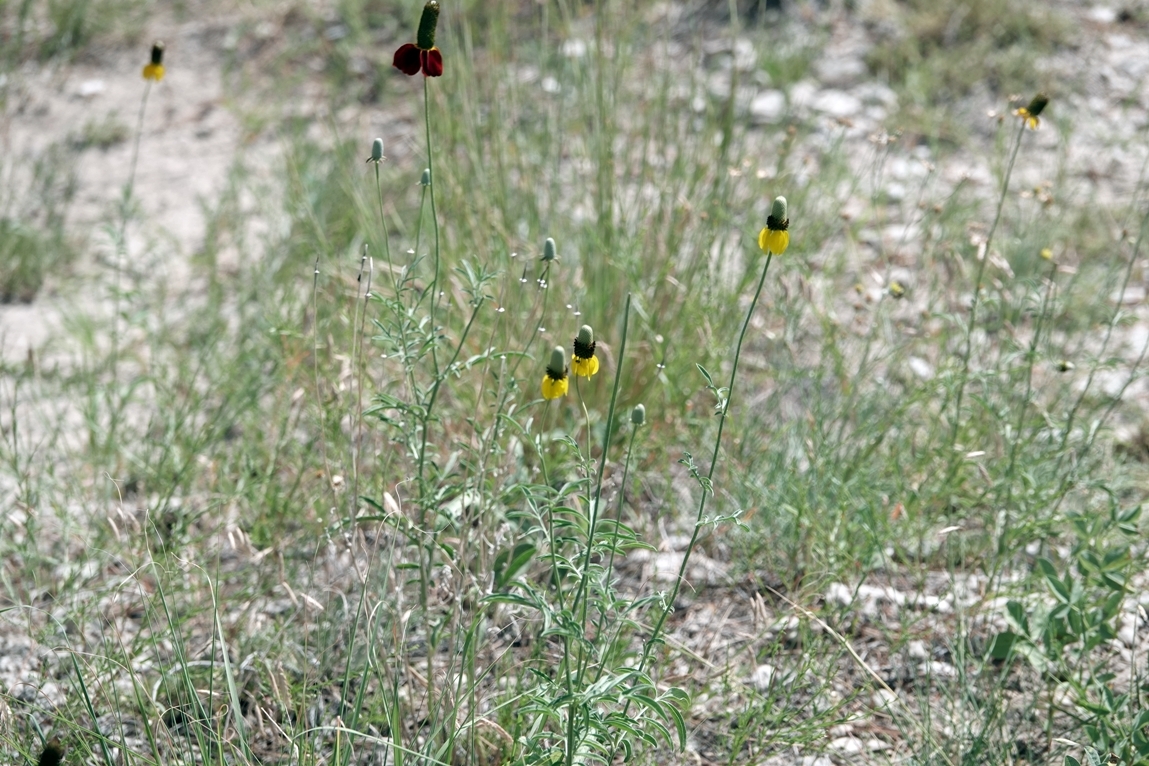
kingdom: Plantae
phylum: Tracheophyta
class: Magnoliopsida
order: Asterales
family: Asteraceae
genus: Ratibida
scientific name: Ratibida columnifera
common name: Prairie coneflower
